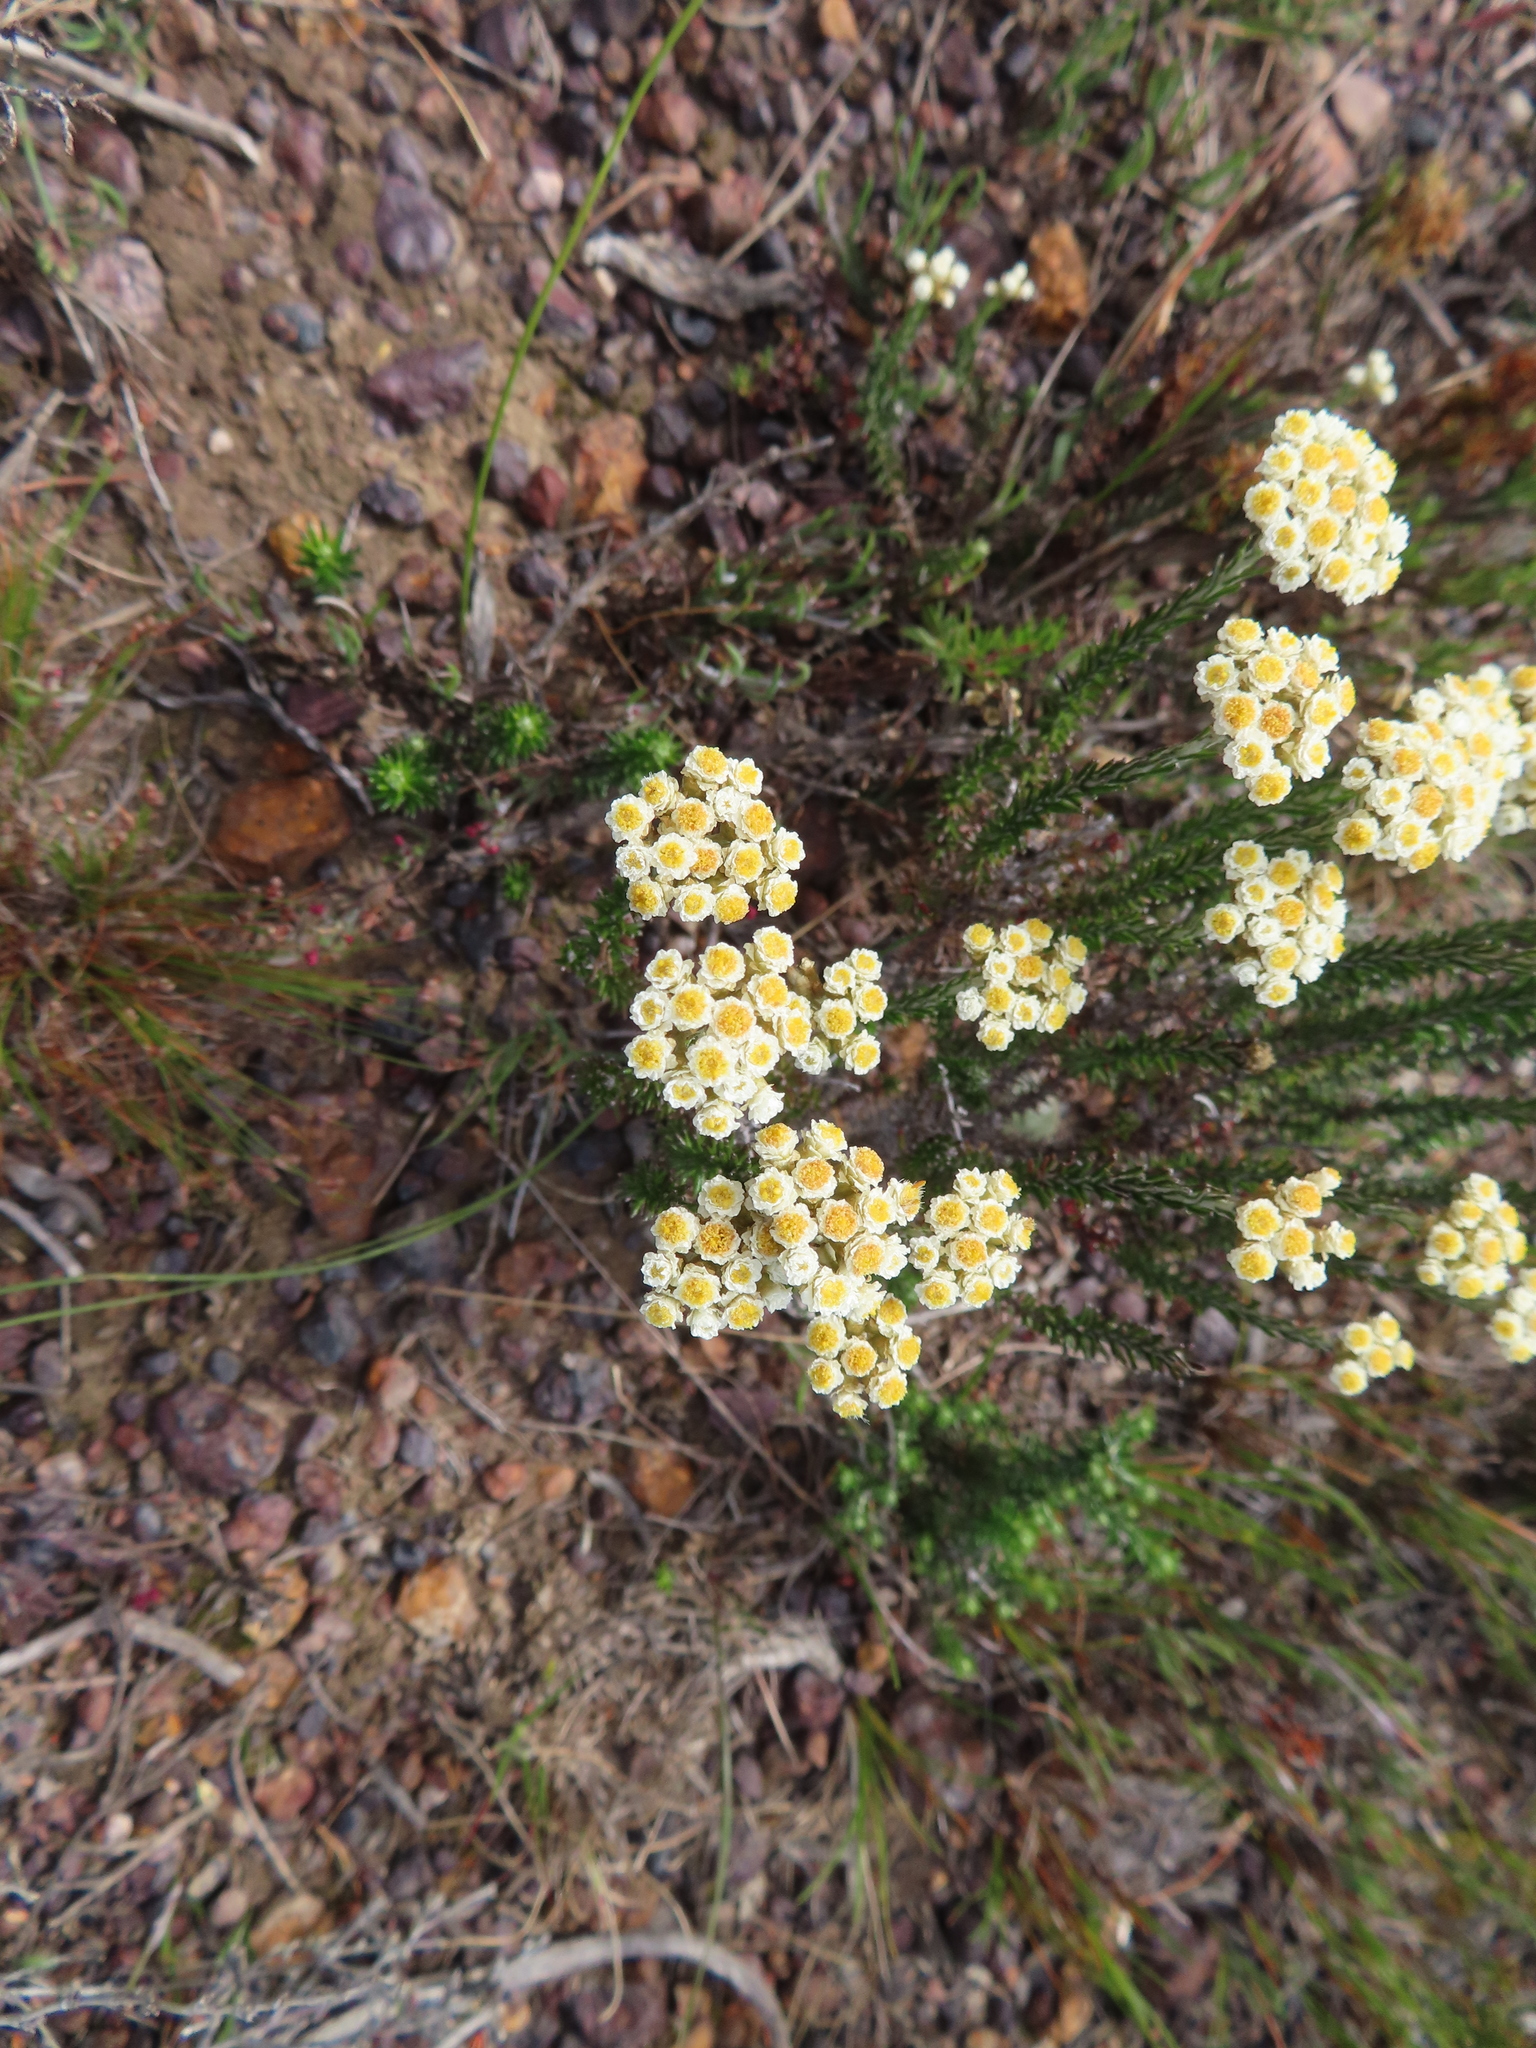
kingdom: Plantae
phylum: Tracheophyta
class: Magnoliopsida
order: Asterales
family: Asteraceae
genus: Helichrysum
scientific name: Helichrysum teretifolium
